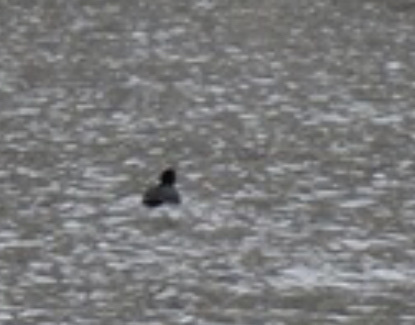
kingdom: Animalia
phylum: Chordata
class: Aves
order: Gruiformes
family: Rallidae
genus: Fulica
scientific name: Fulica atra
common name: Eurasian coot
